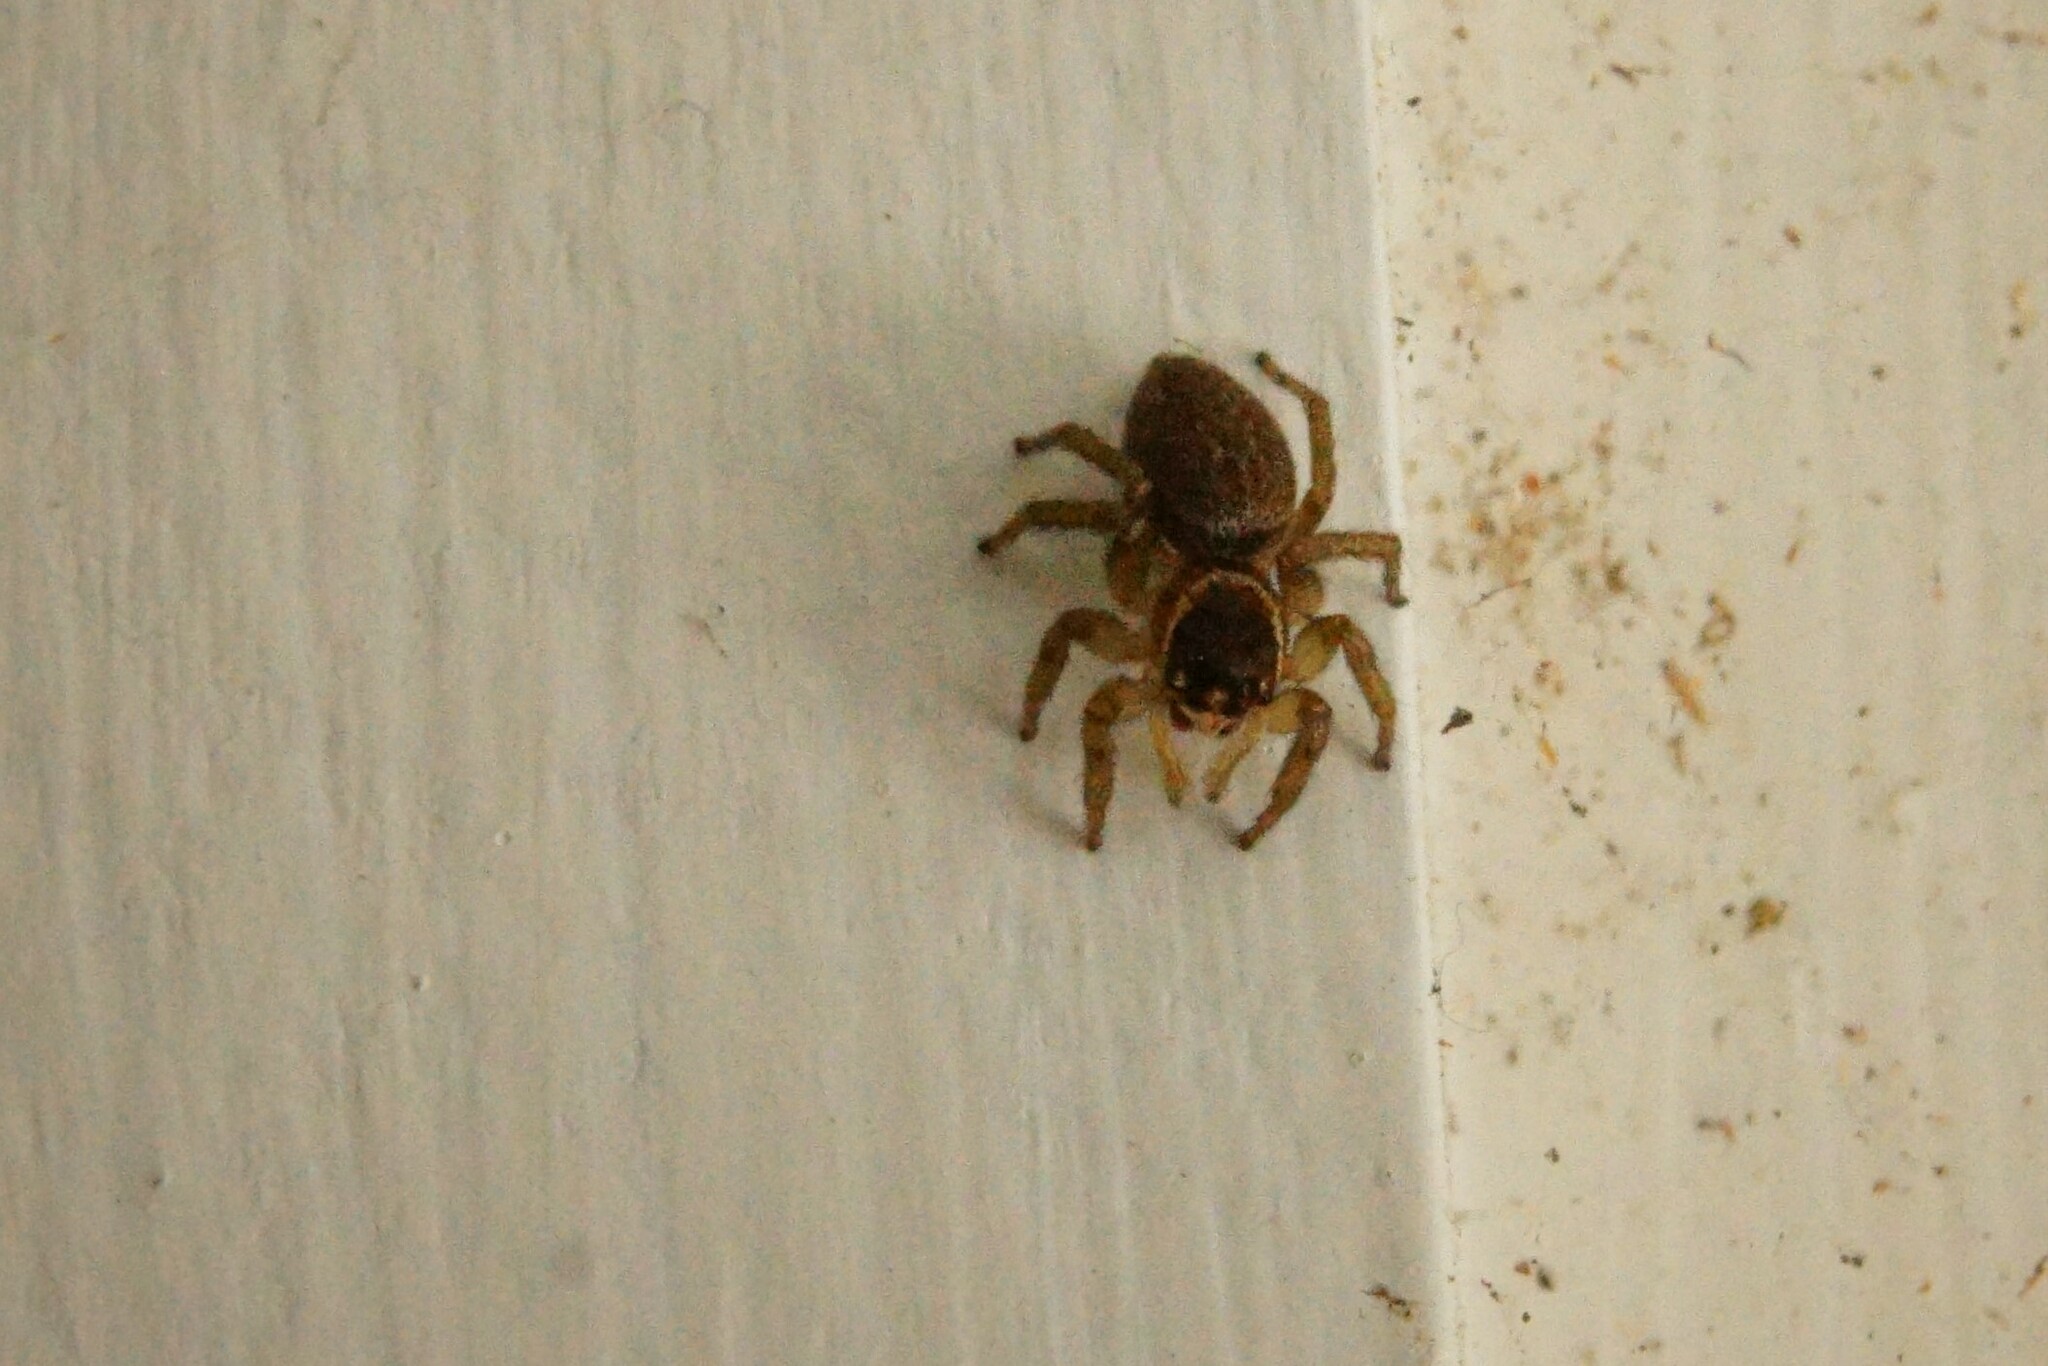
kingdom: Animalia
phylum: Arthropoda
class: Arachnida
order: Araneae
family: Salticidae
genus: Maratus
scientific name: Maratus griseus
